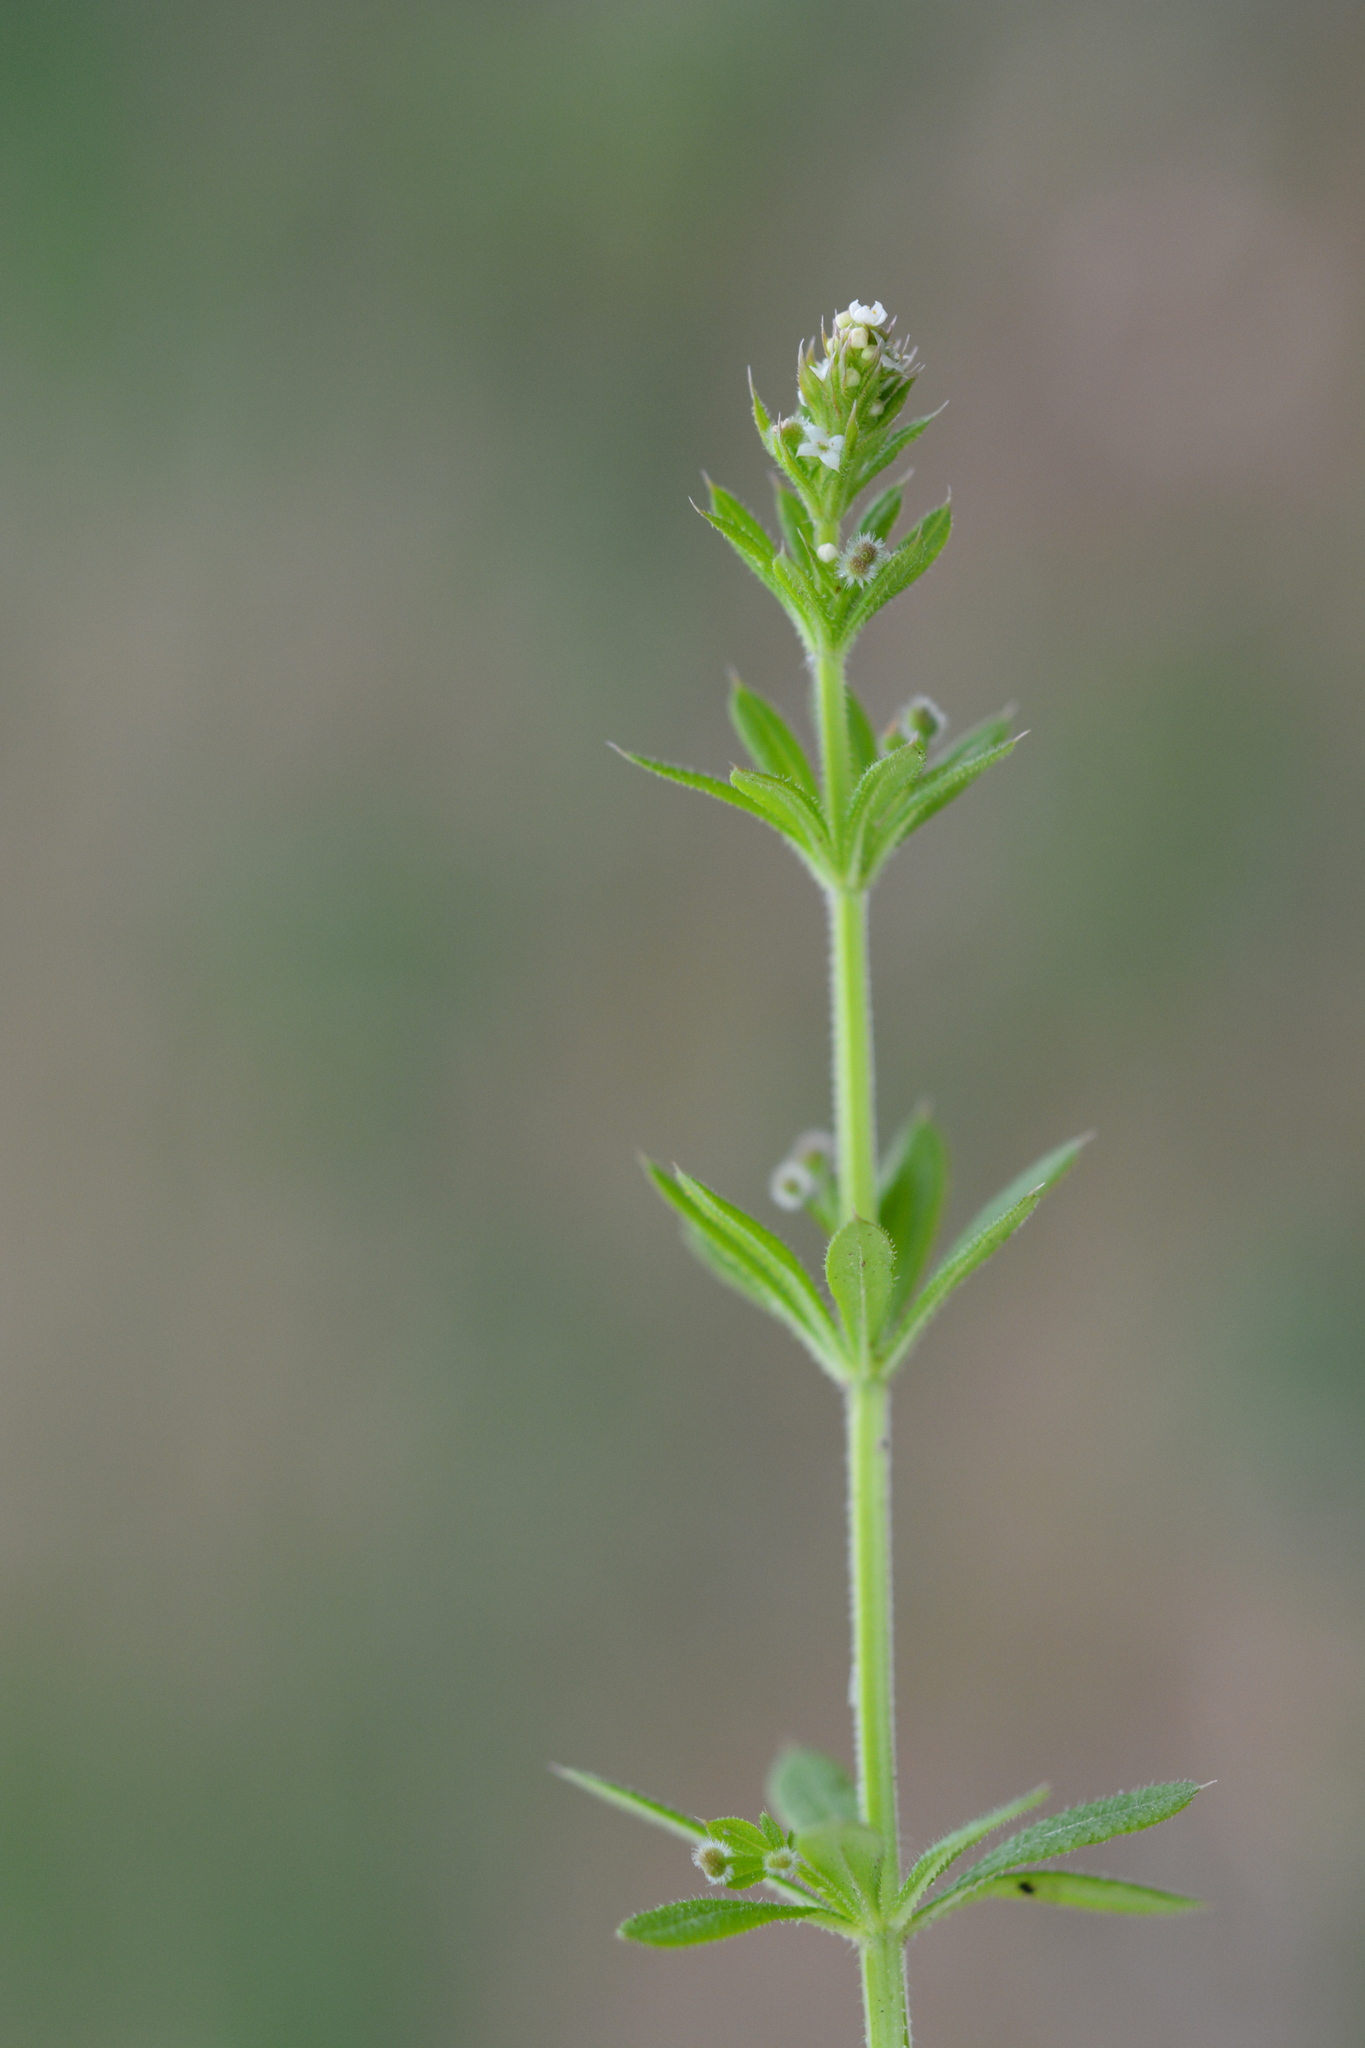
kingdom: Plantae
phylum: Tracheophyta
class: Magnoliopsida
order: Gentianales
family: Rubiaceae
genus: Galium
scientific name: Galium aparine
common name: Cleavers
